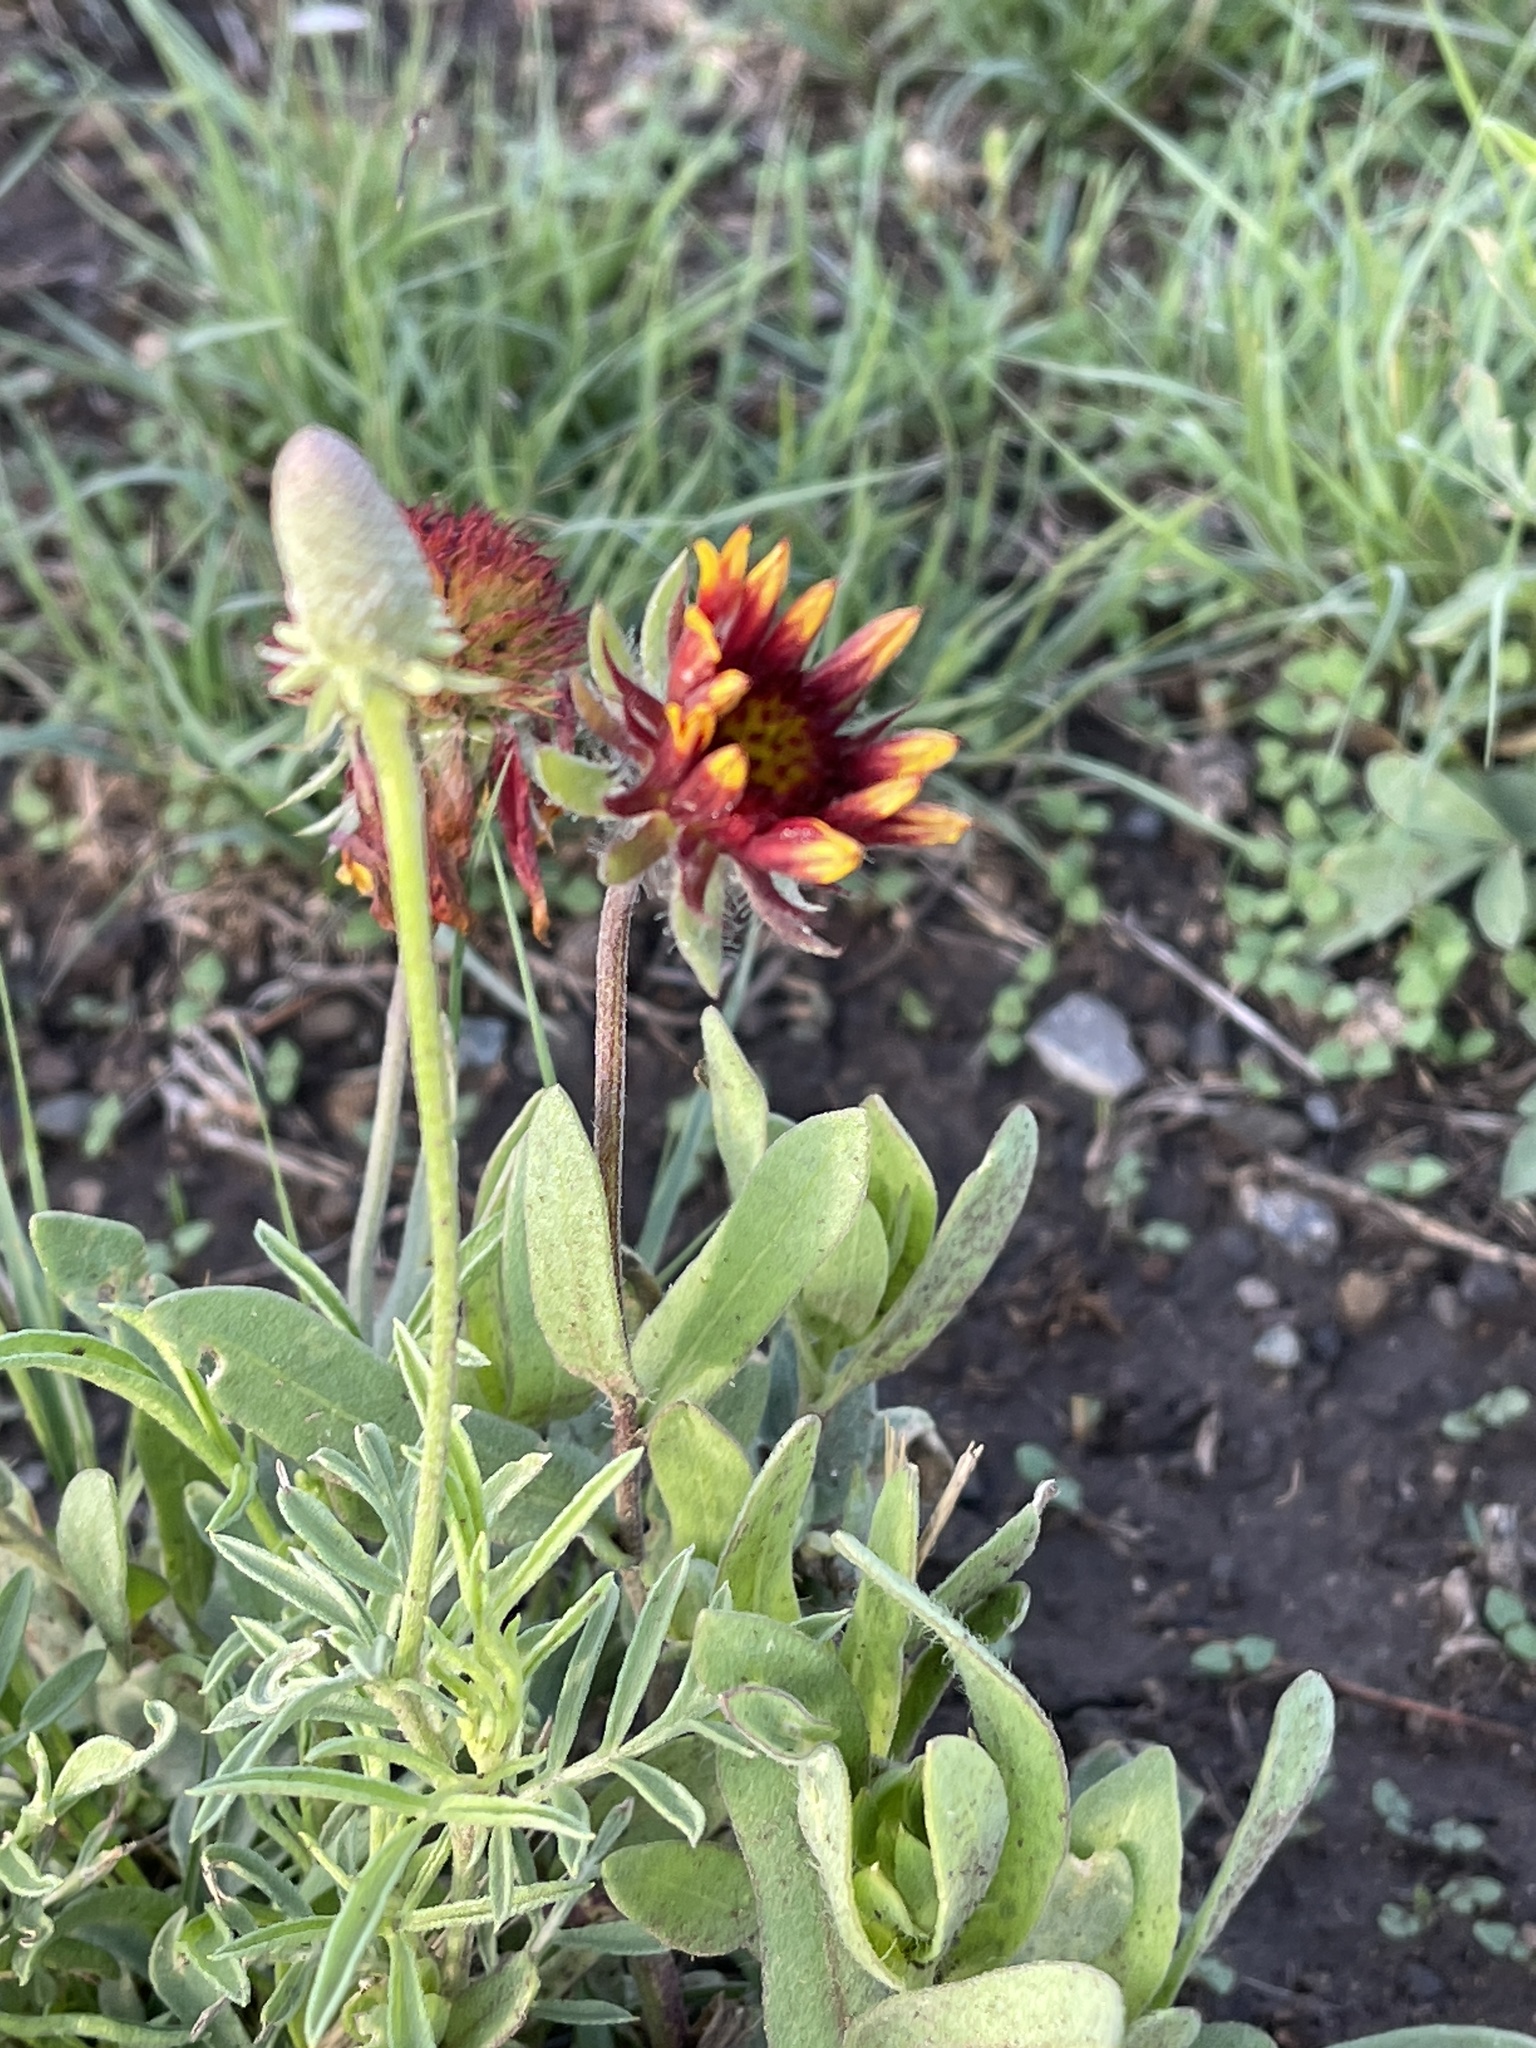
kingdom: Plantae
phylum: Tracheophyta
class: Magnoliopsida
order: Asterales
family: Asteraceae
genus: Gaillardia
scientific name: Gaillardia pulchella
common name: Firewheel
